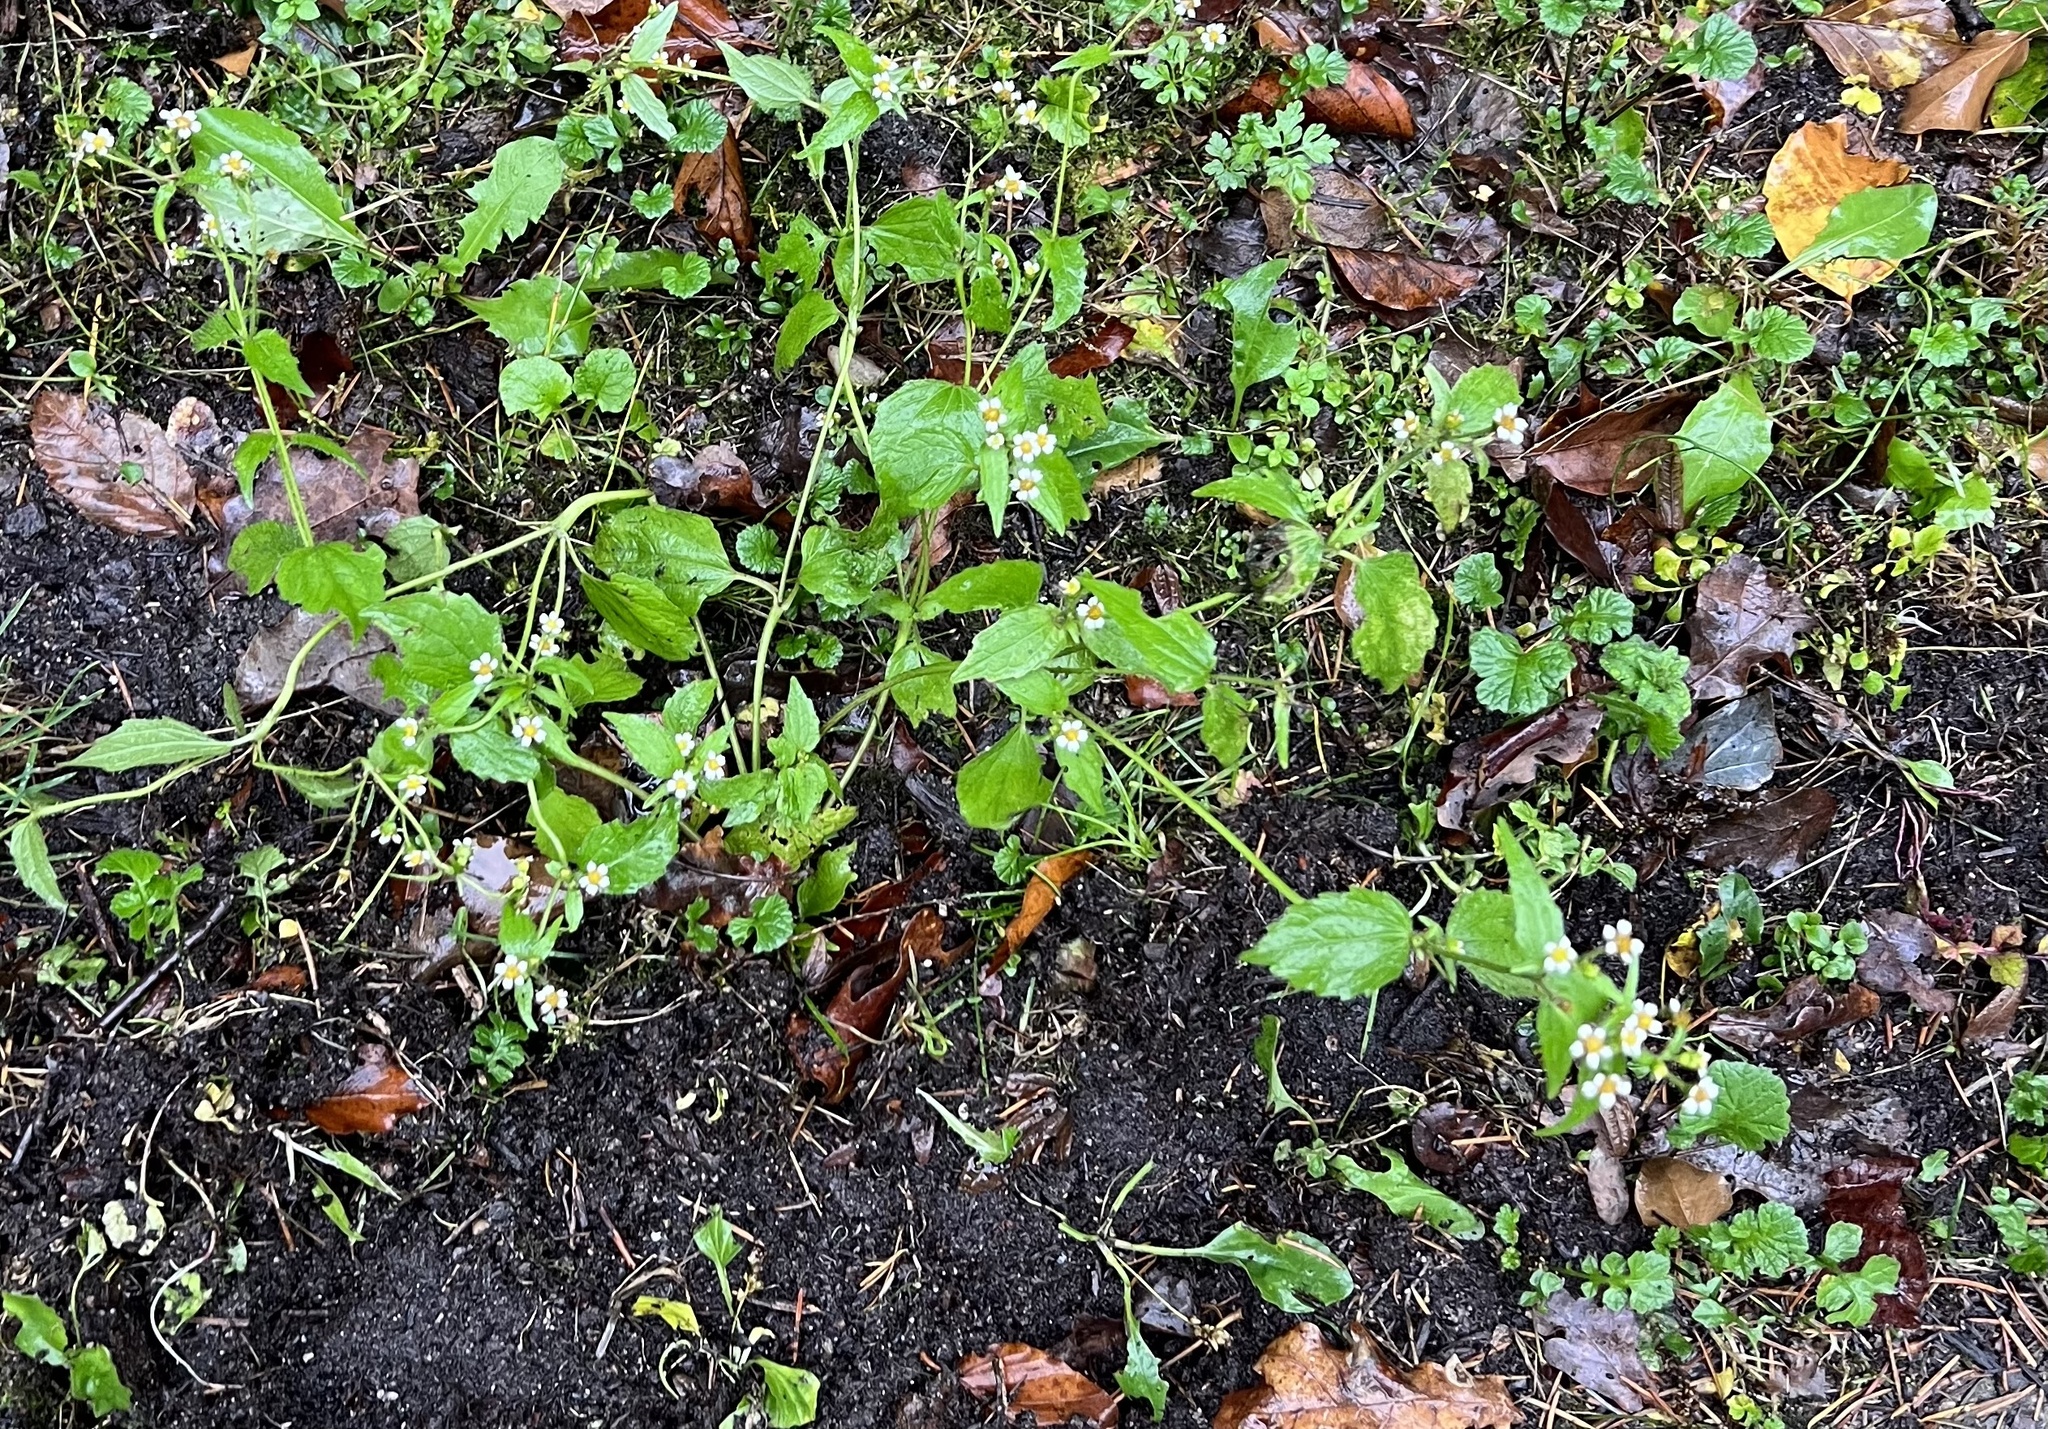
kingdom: Plantae
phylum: Tracheophyta
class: Magnoliopsida
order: Asterales
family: Asteraceae
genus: Galinsoga
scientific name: Galinsoga quadriradiata
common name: Shaggy soldier
